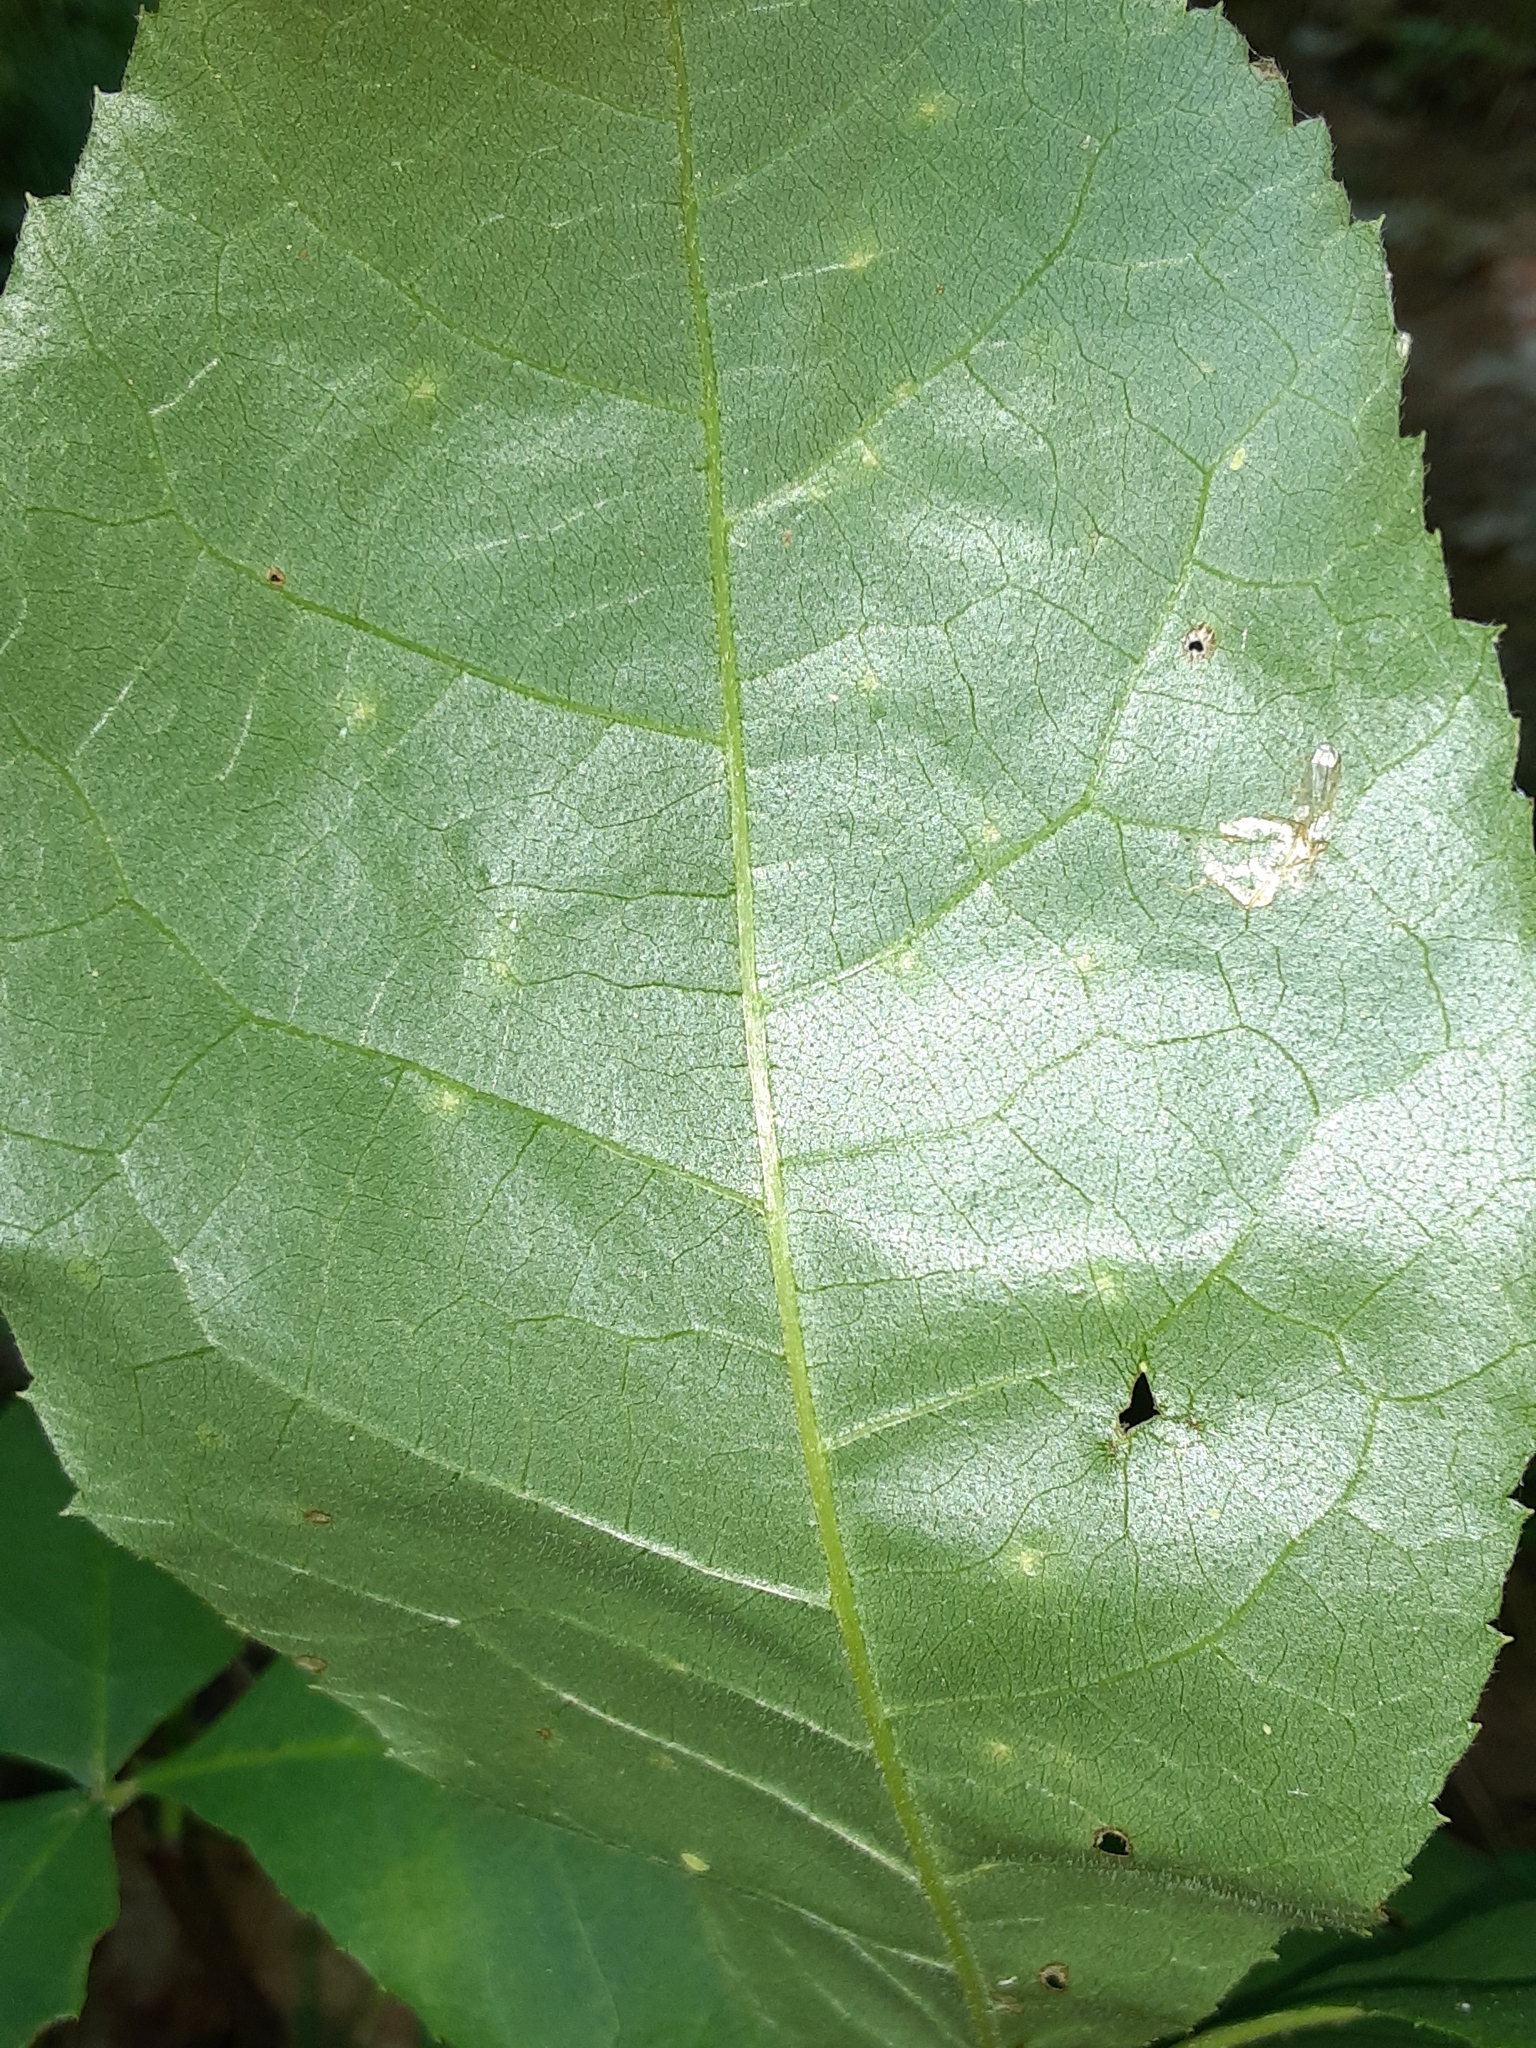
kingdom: Animalia
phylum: Arthropoda
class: Insecta
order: Diptera
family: Cecidomyiidae
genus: Caryomyia
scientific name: Caryomyia viscidolium
